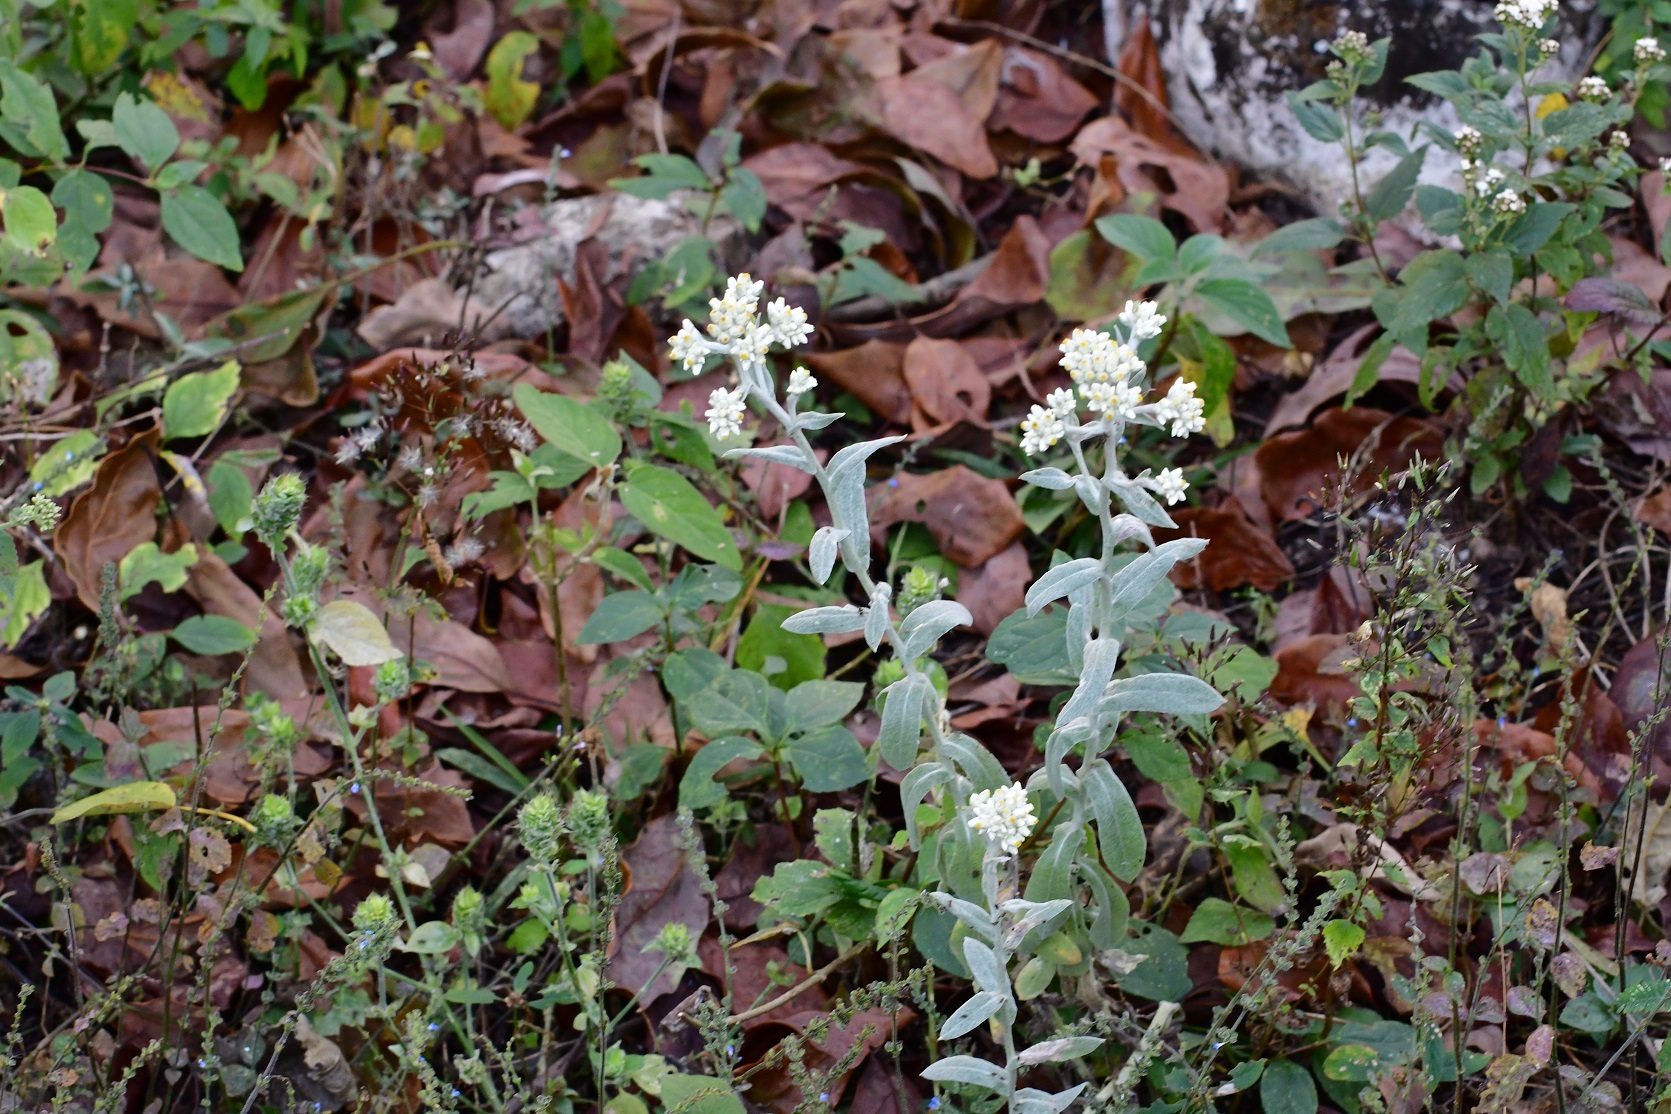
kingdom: Plantae
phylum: Tracheophyta
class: Magnoliopsida
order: Asterales
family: Asteraceae
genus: Achyrocline
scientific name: Achyrocline deflexa
